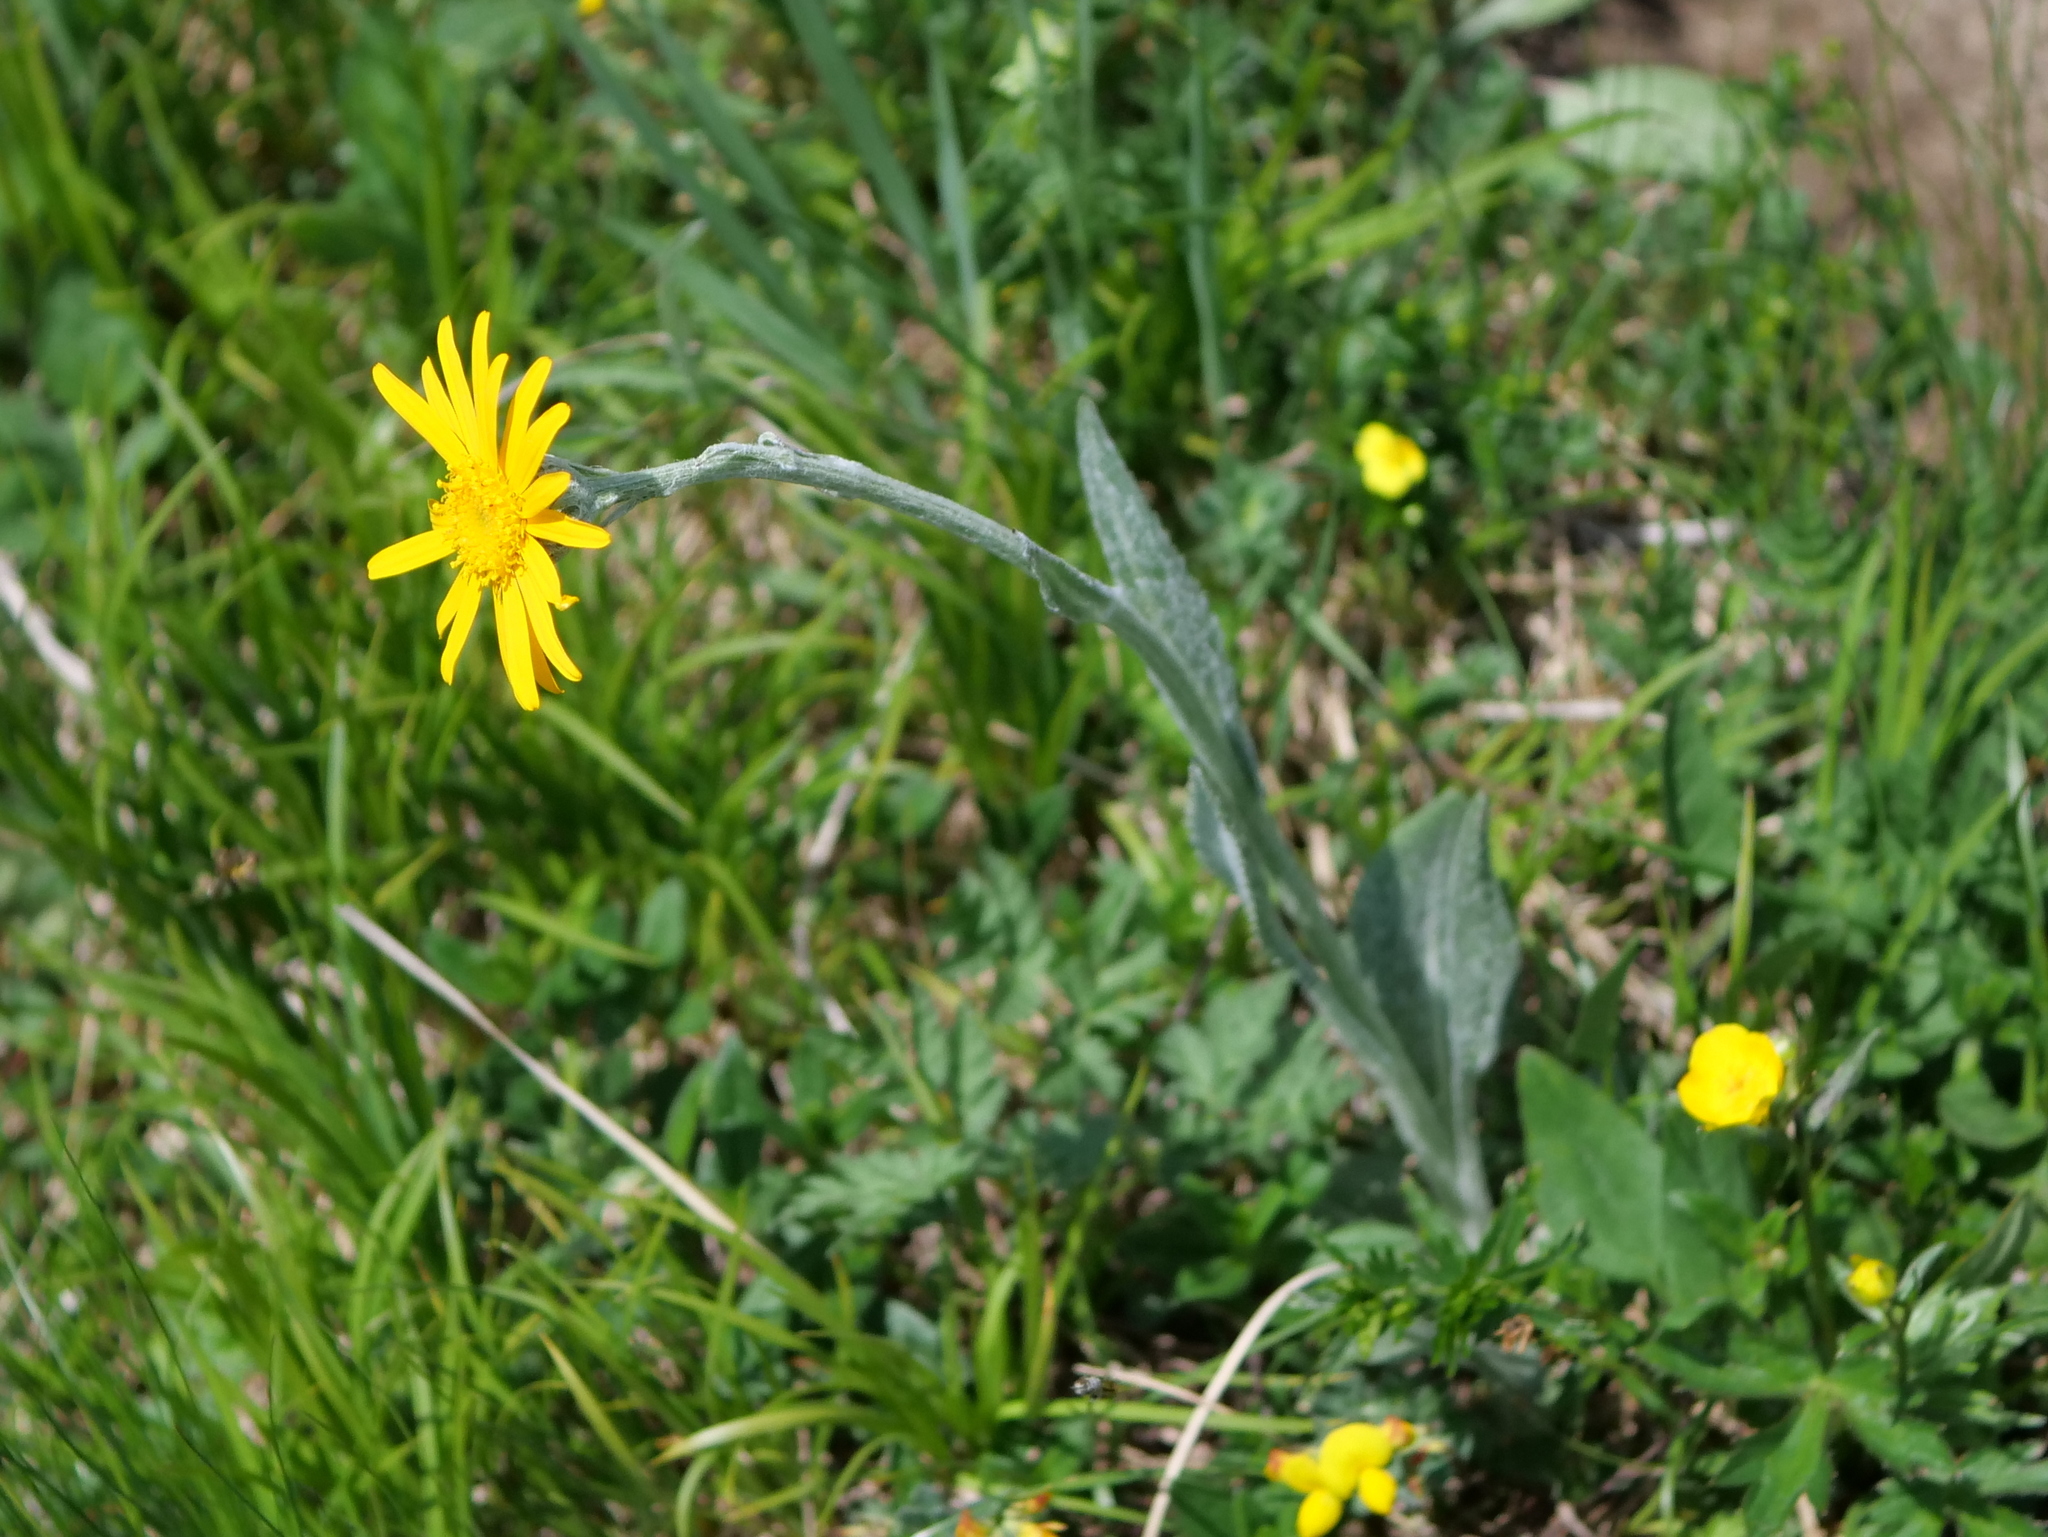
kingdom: Plantae
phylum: Tracheophyta
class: Magnoliopsida
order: Asterales
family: Asteraceae
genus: Senecio
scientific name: Senecio doronicum
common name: Chamois ragwort
